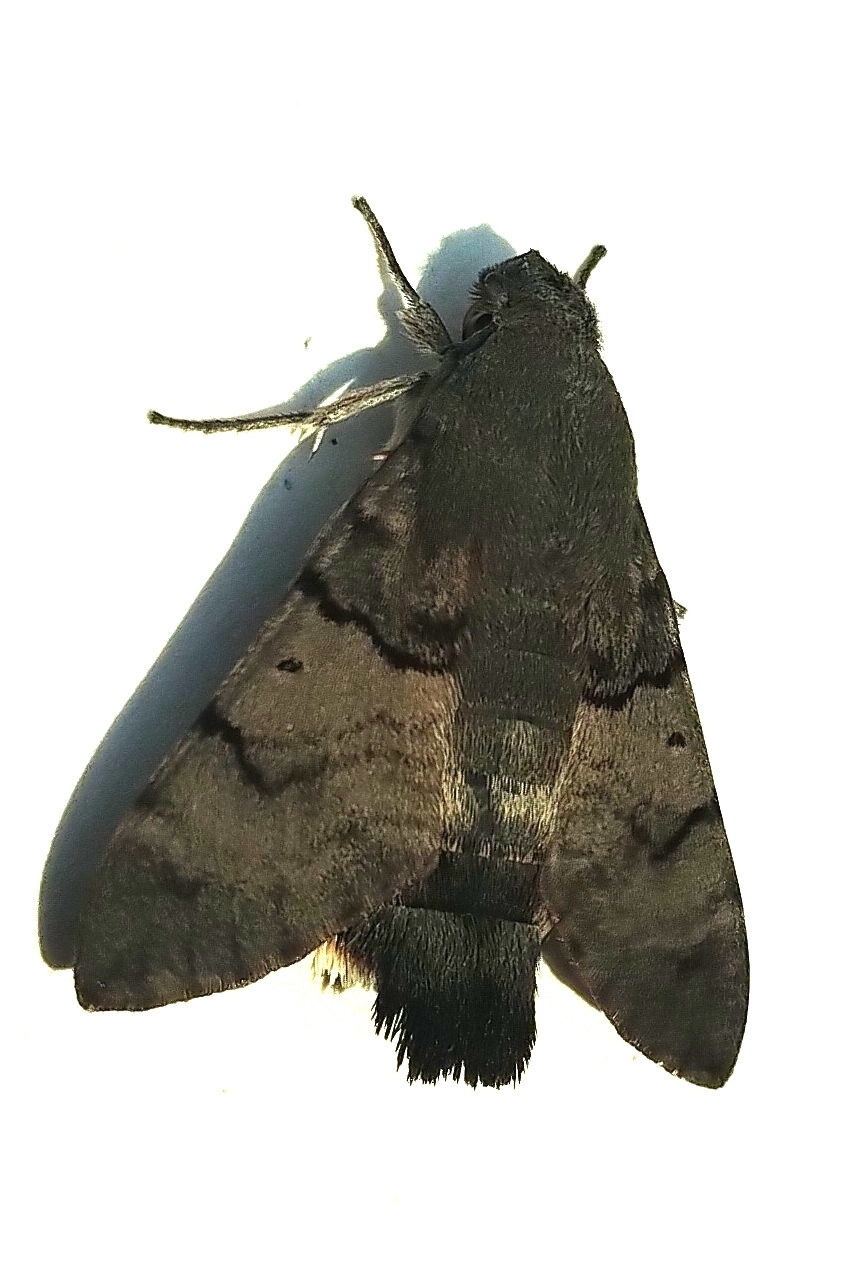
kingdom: Animalia
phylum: Arthropoda
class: Insecta
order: Lepidoptera
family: Sphingidae
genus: Macroglossum
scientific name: Macroglossum stellatarum
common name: Humming-bird hawk-moth
